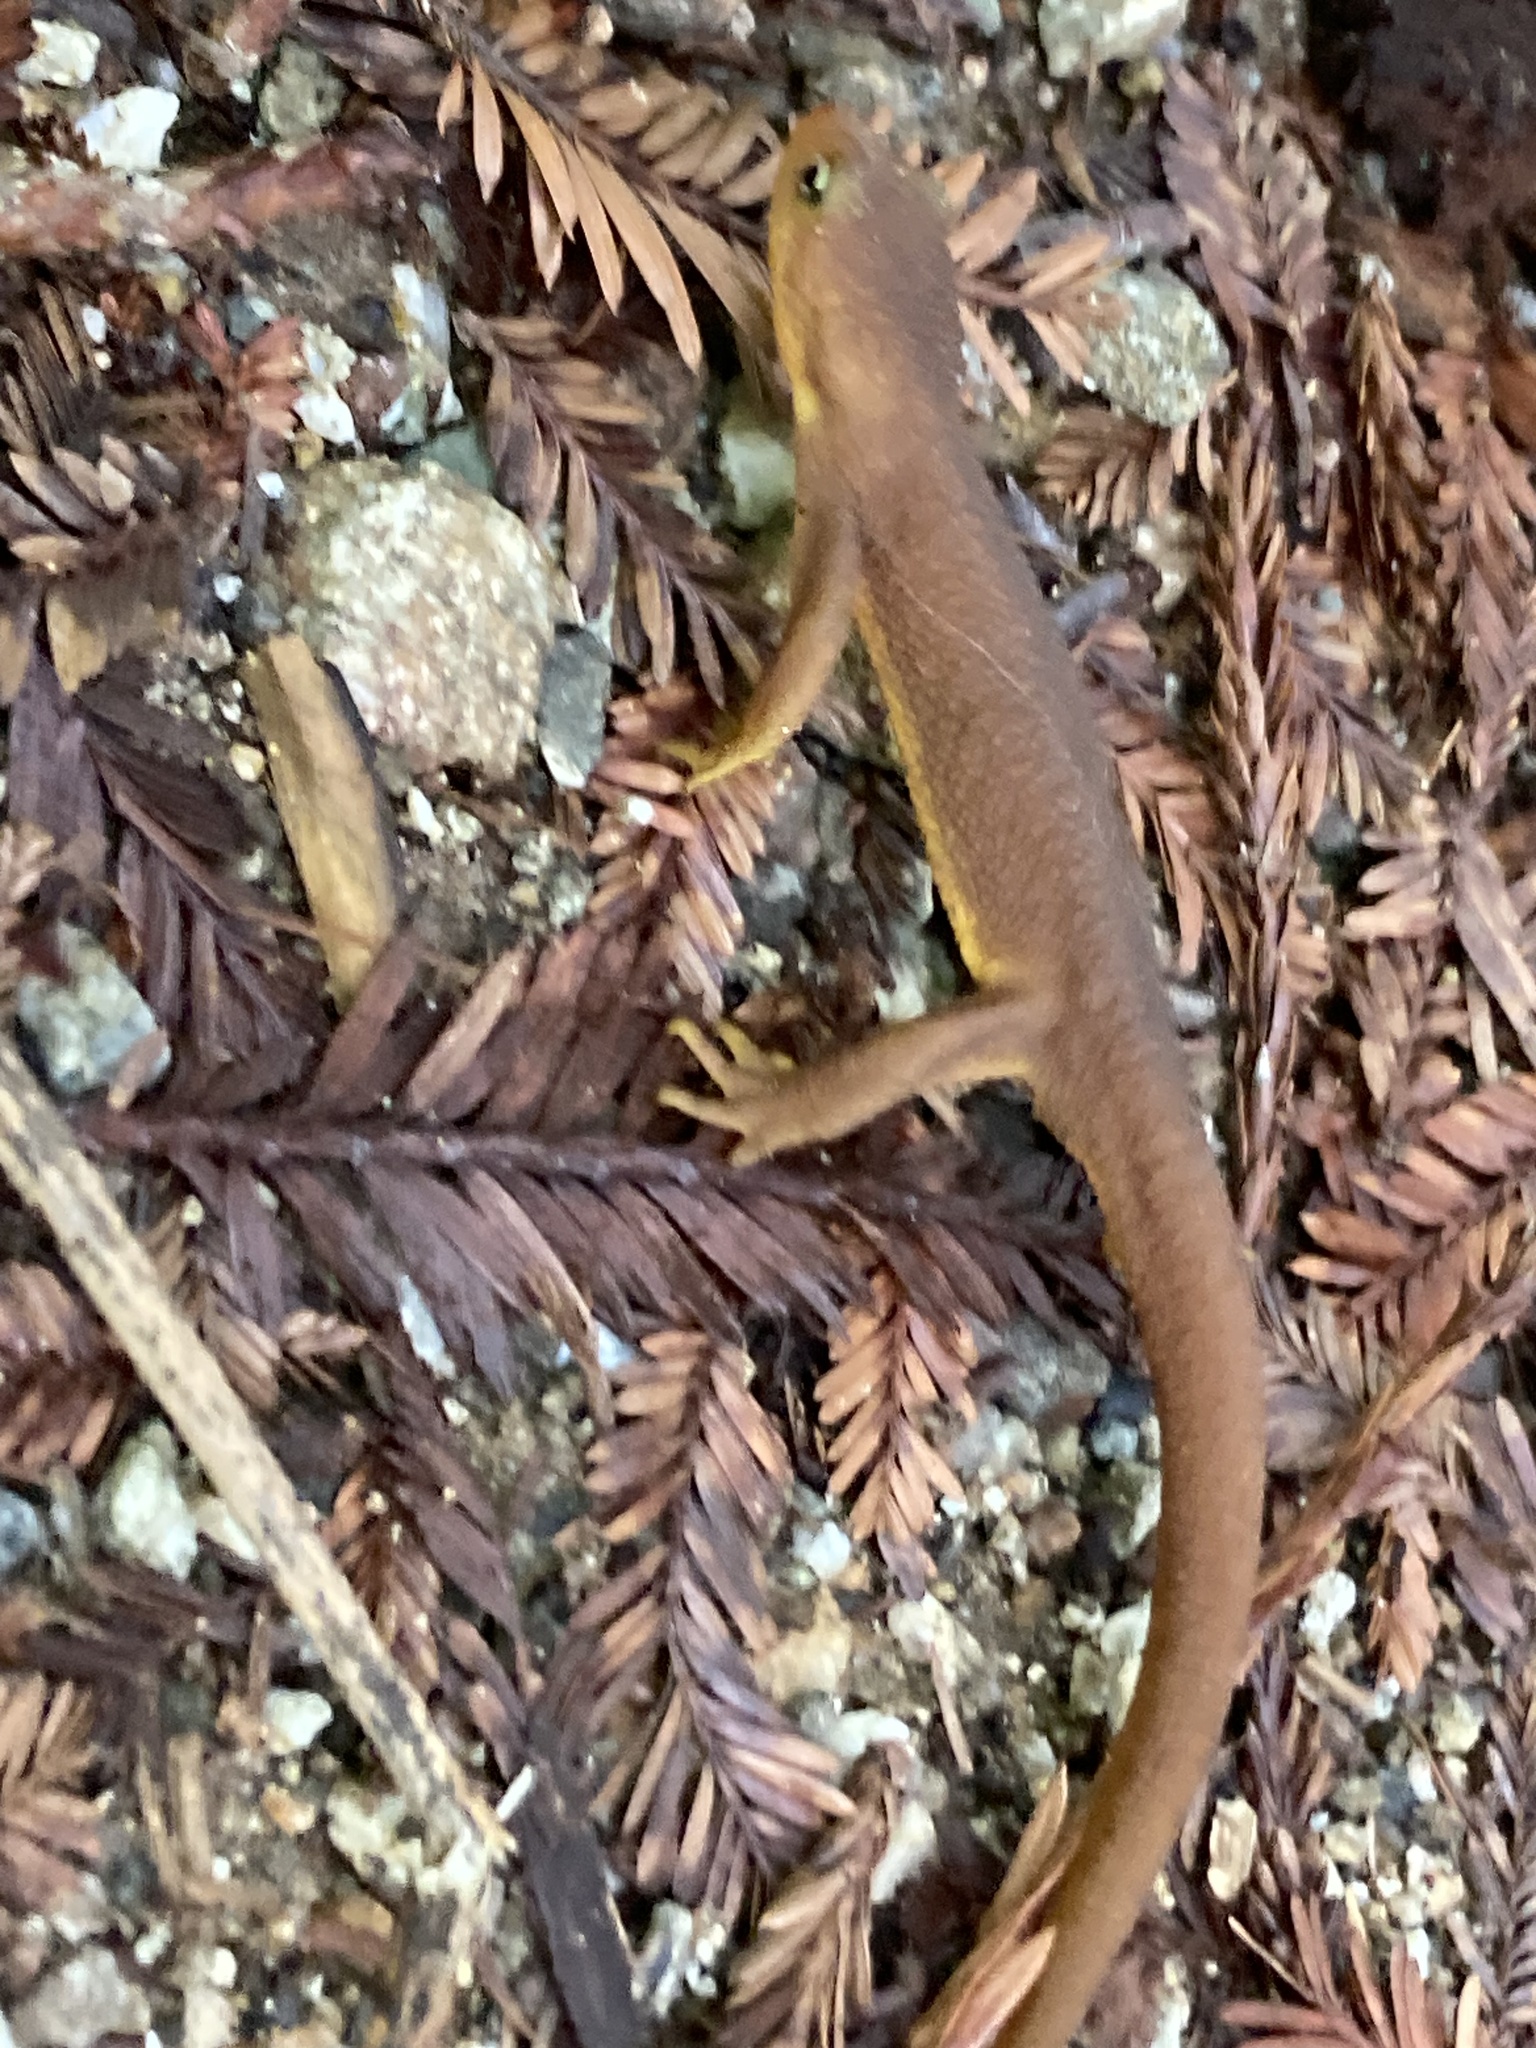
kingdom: Animalia
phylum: Chordata
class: Amphibia
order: Caudata
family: Salamandridae
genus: Taricha
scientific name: Taricha torosa
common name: California newt
